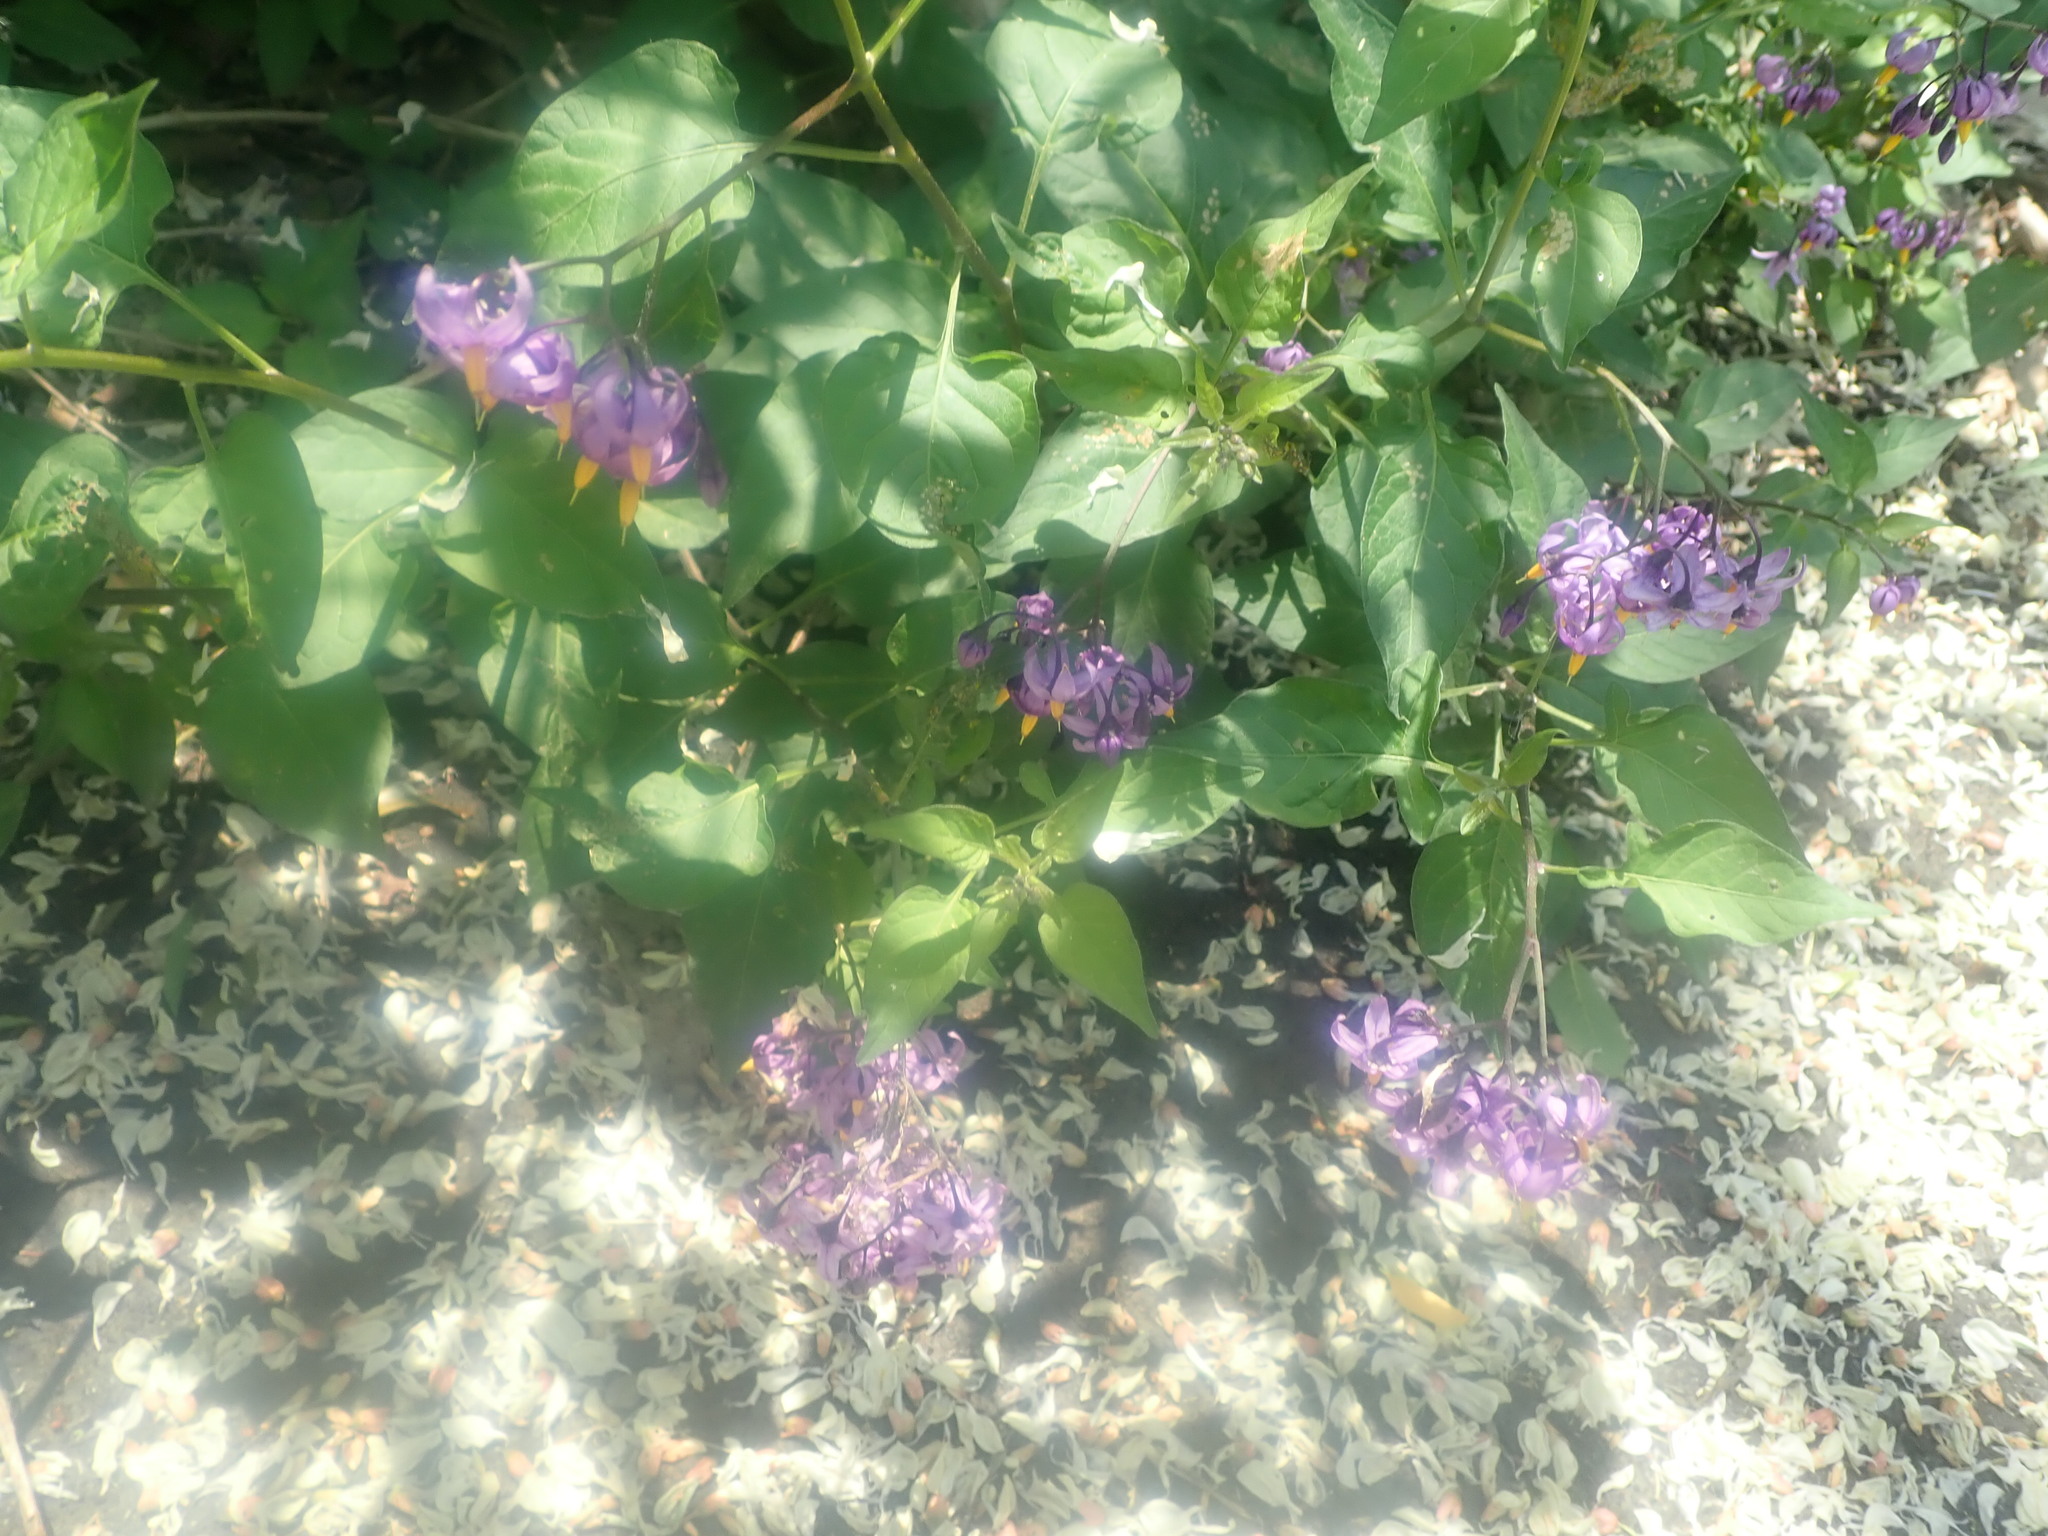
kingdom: Plantae
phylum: Tracheophyta
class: Magnoliopsida
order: Solanales
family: Solanaceae
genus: Solanum
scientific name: Solanum dulcamara
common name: Climbing nightshade
